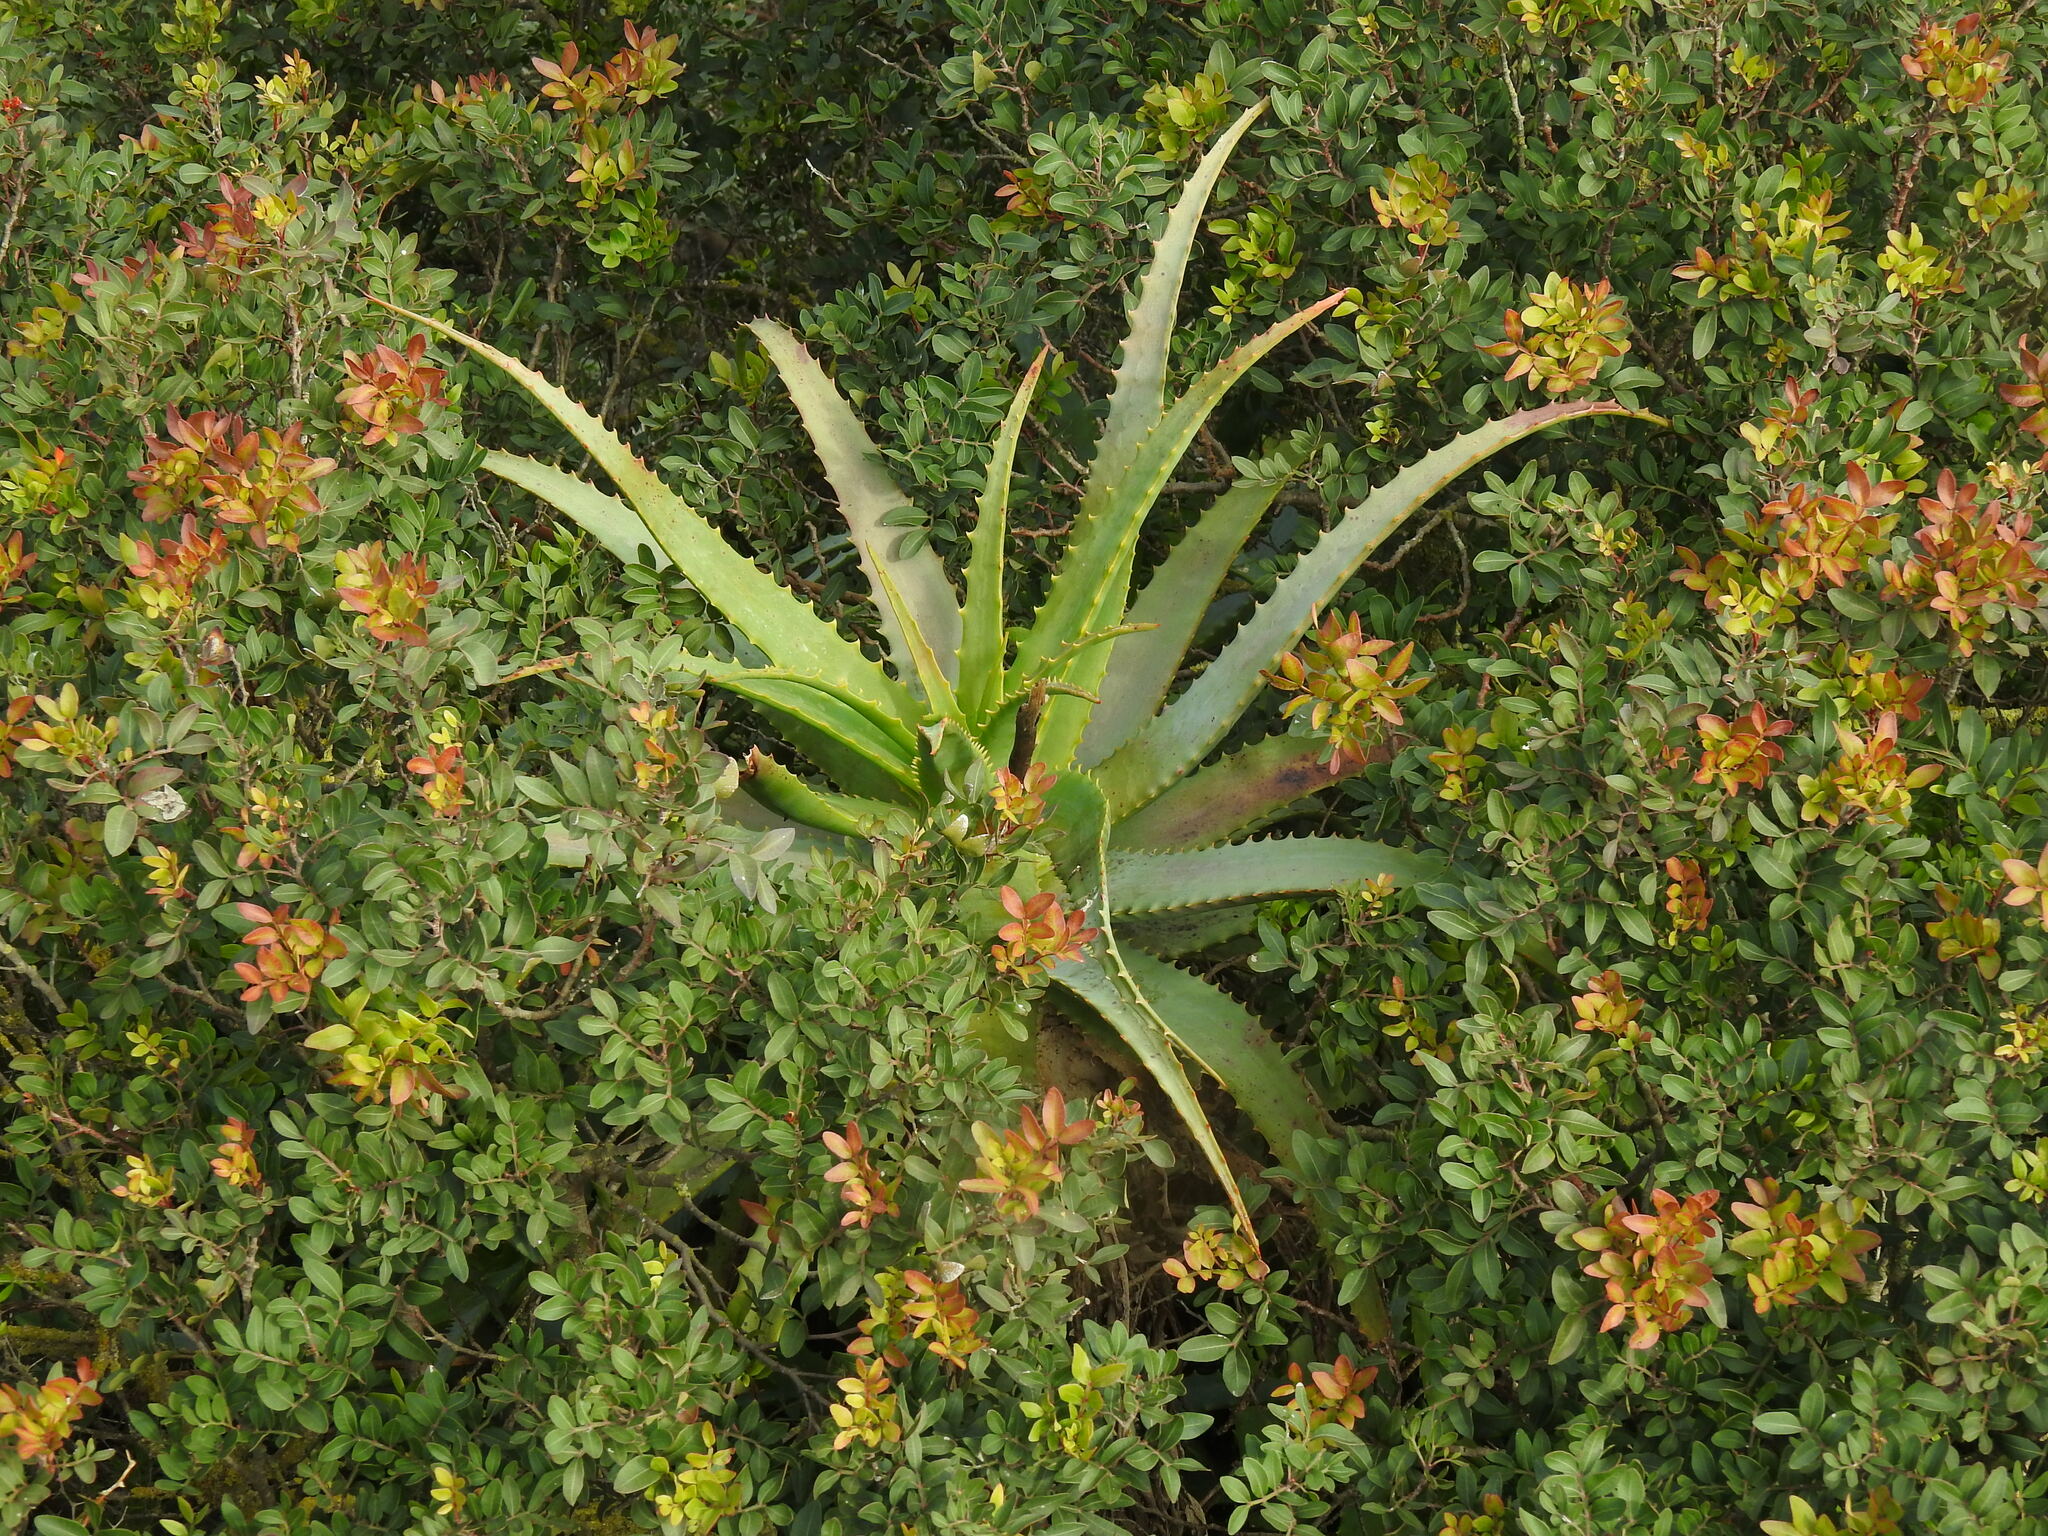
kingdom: Plantae
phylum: Tracheophyta
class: Liliopsida
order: Asparagales
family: Asphodelaceae
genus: Aloe
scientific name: Aloe arborescens
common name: Candelabra aloe
